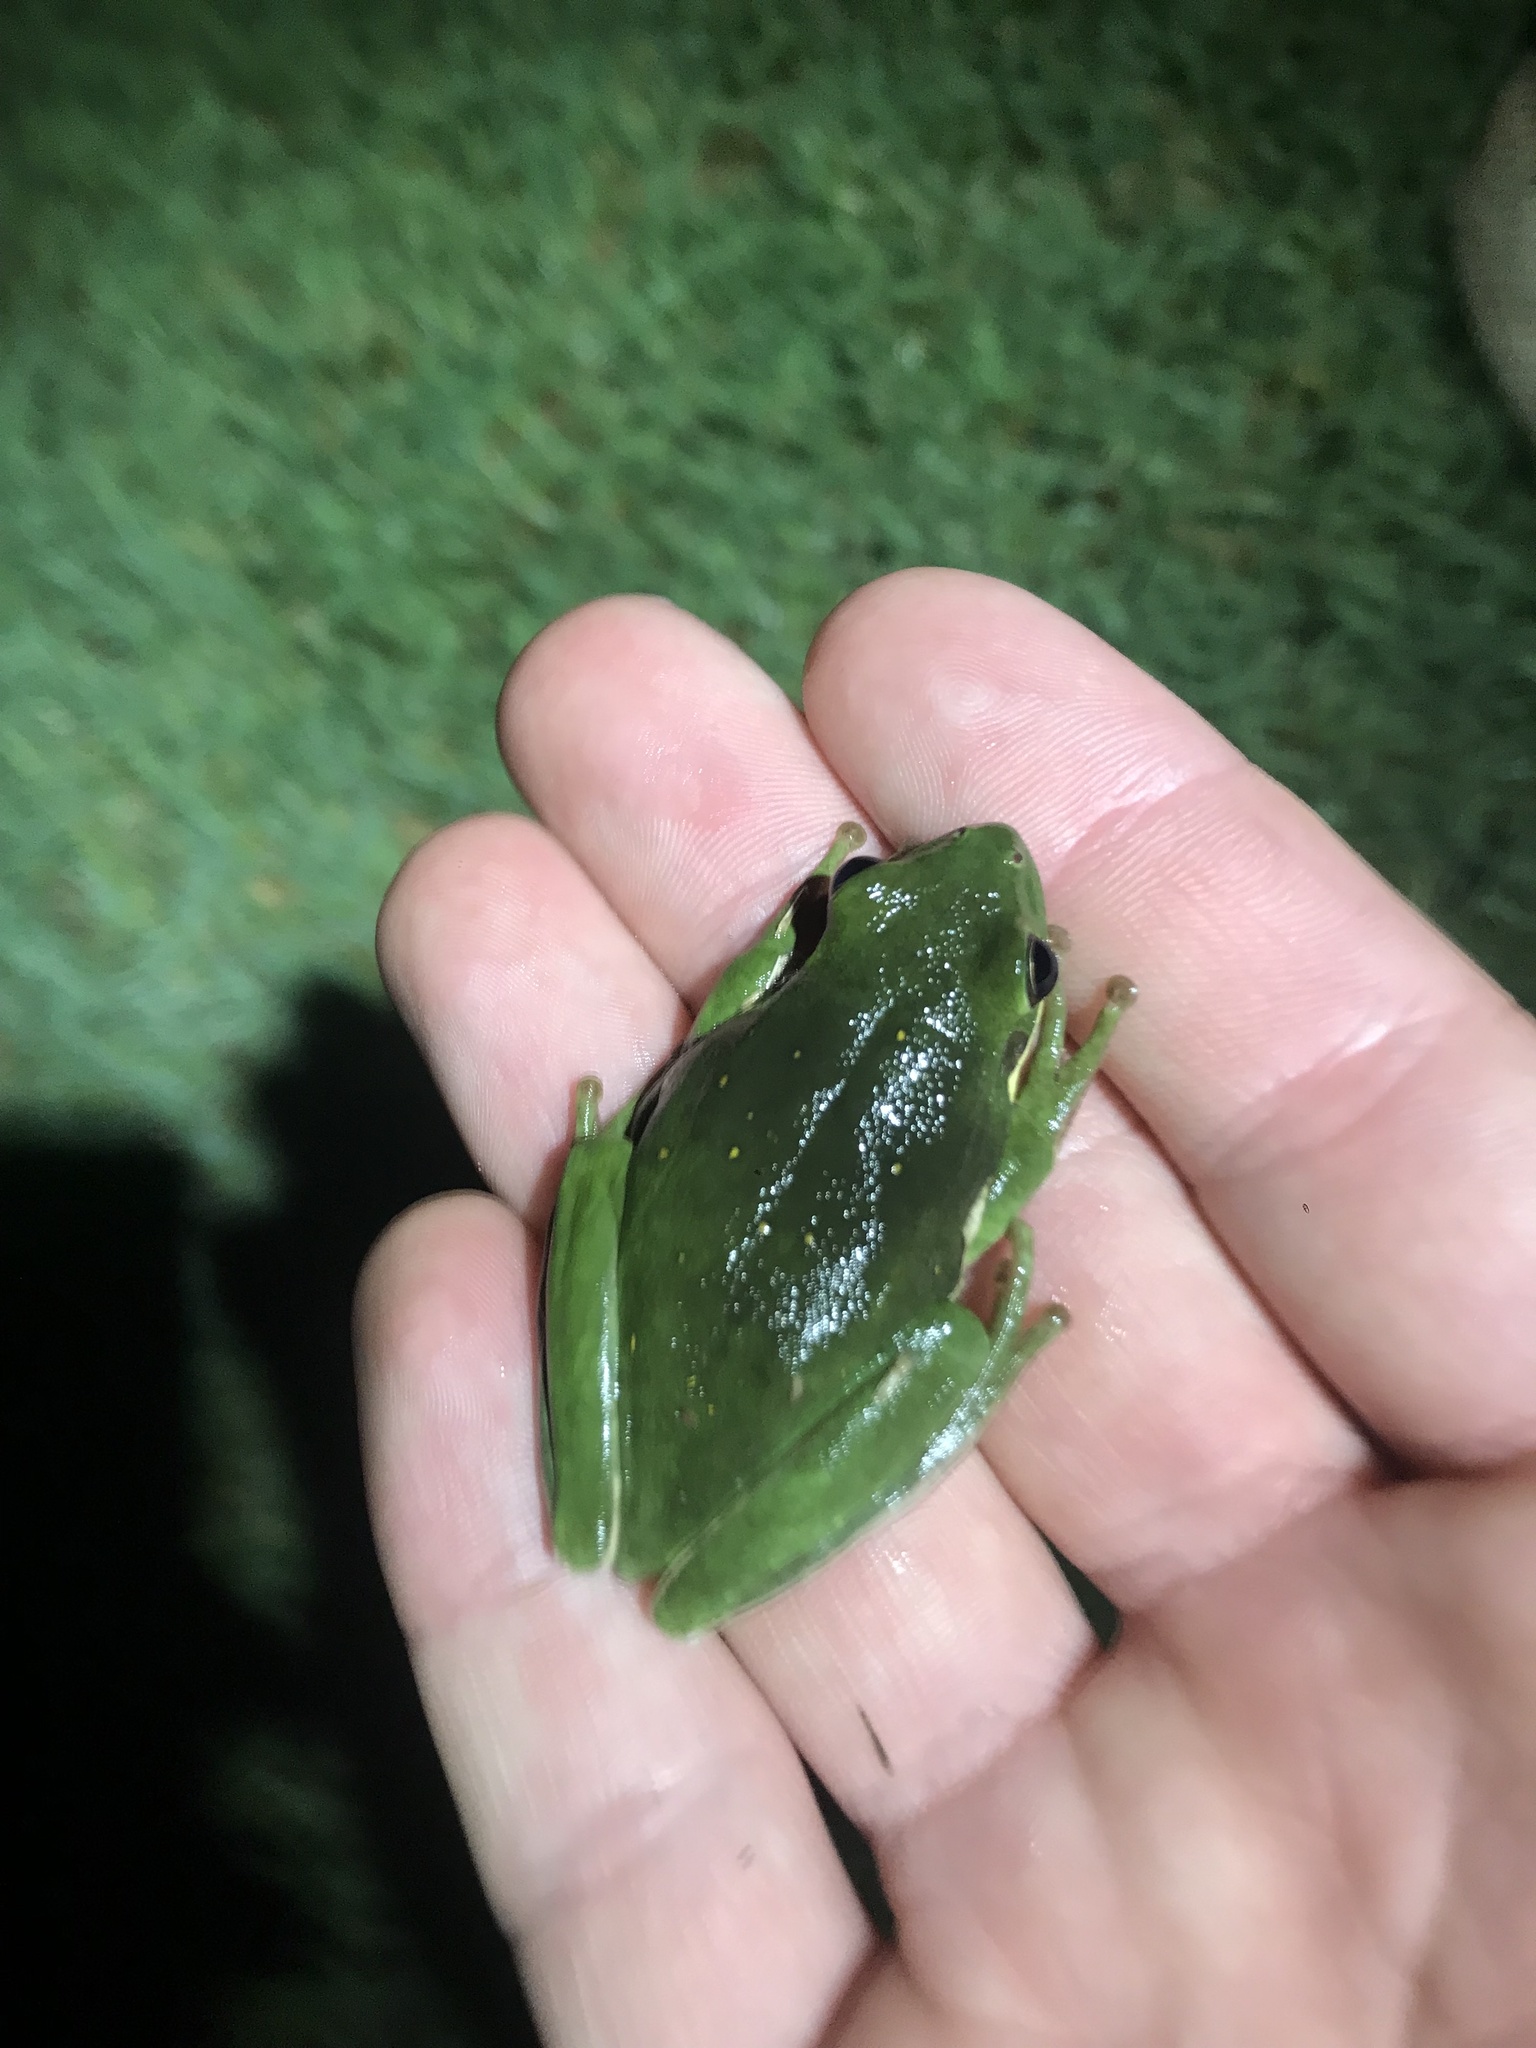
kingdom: Animalia
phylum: Chordata
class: Amphibia
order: Anura
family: Hylidae
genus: Dryophytes
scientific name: Dryophytes cinereus
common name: Green treefrog
